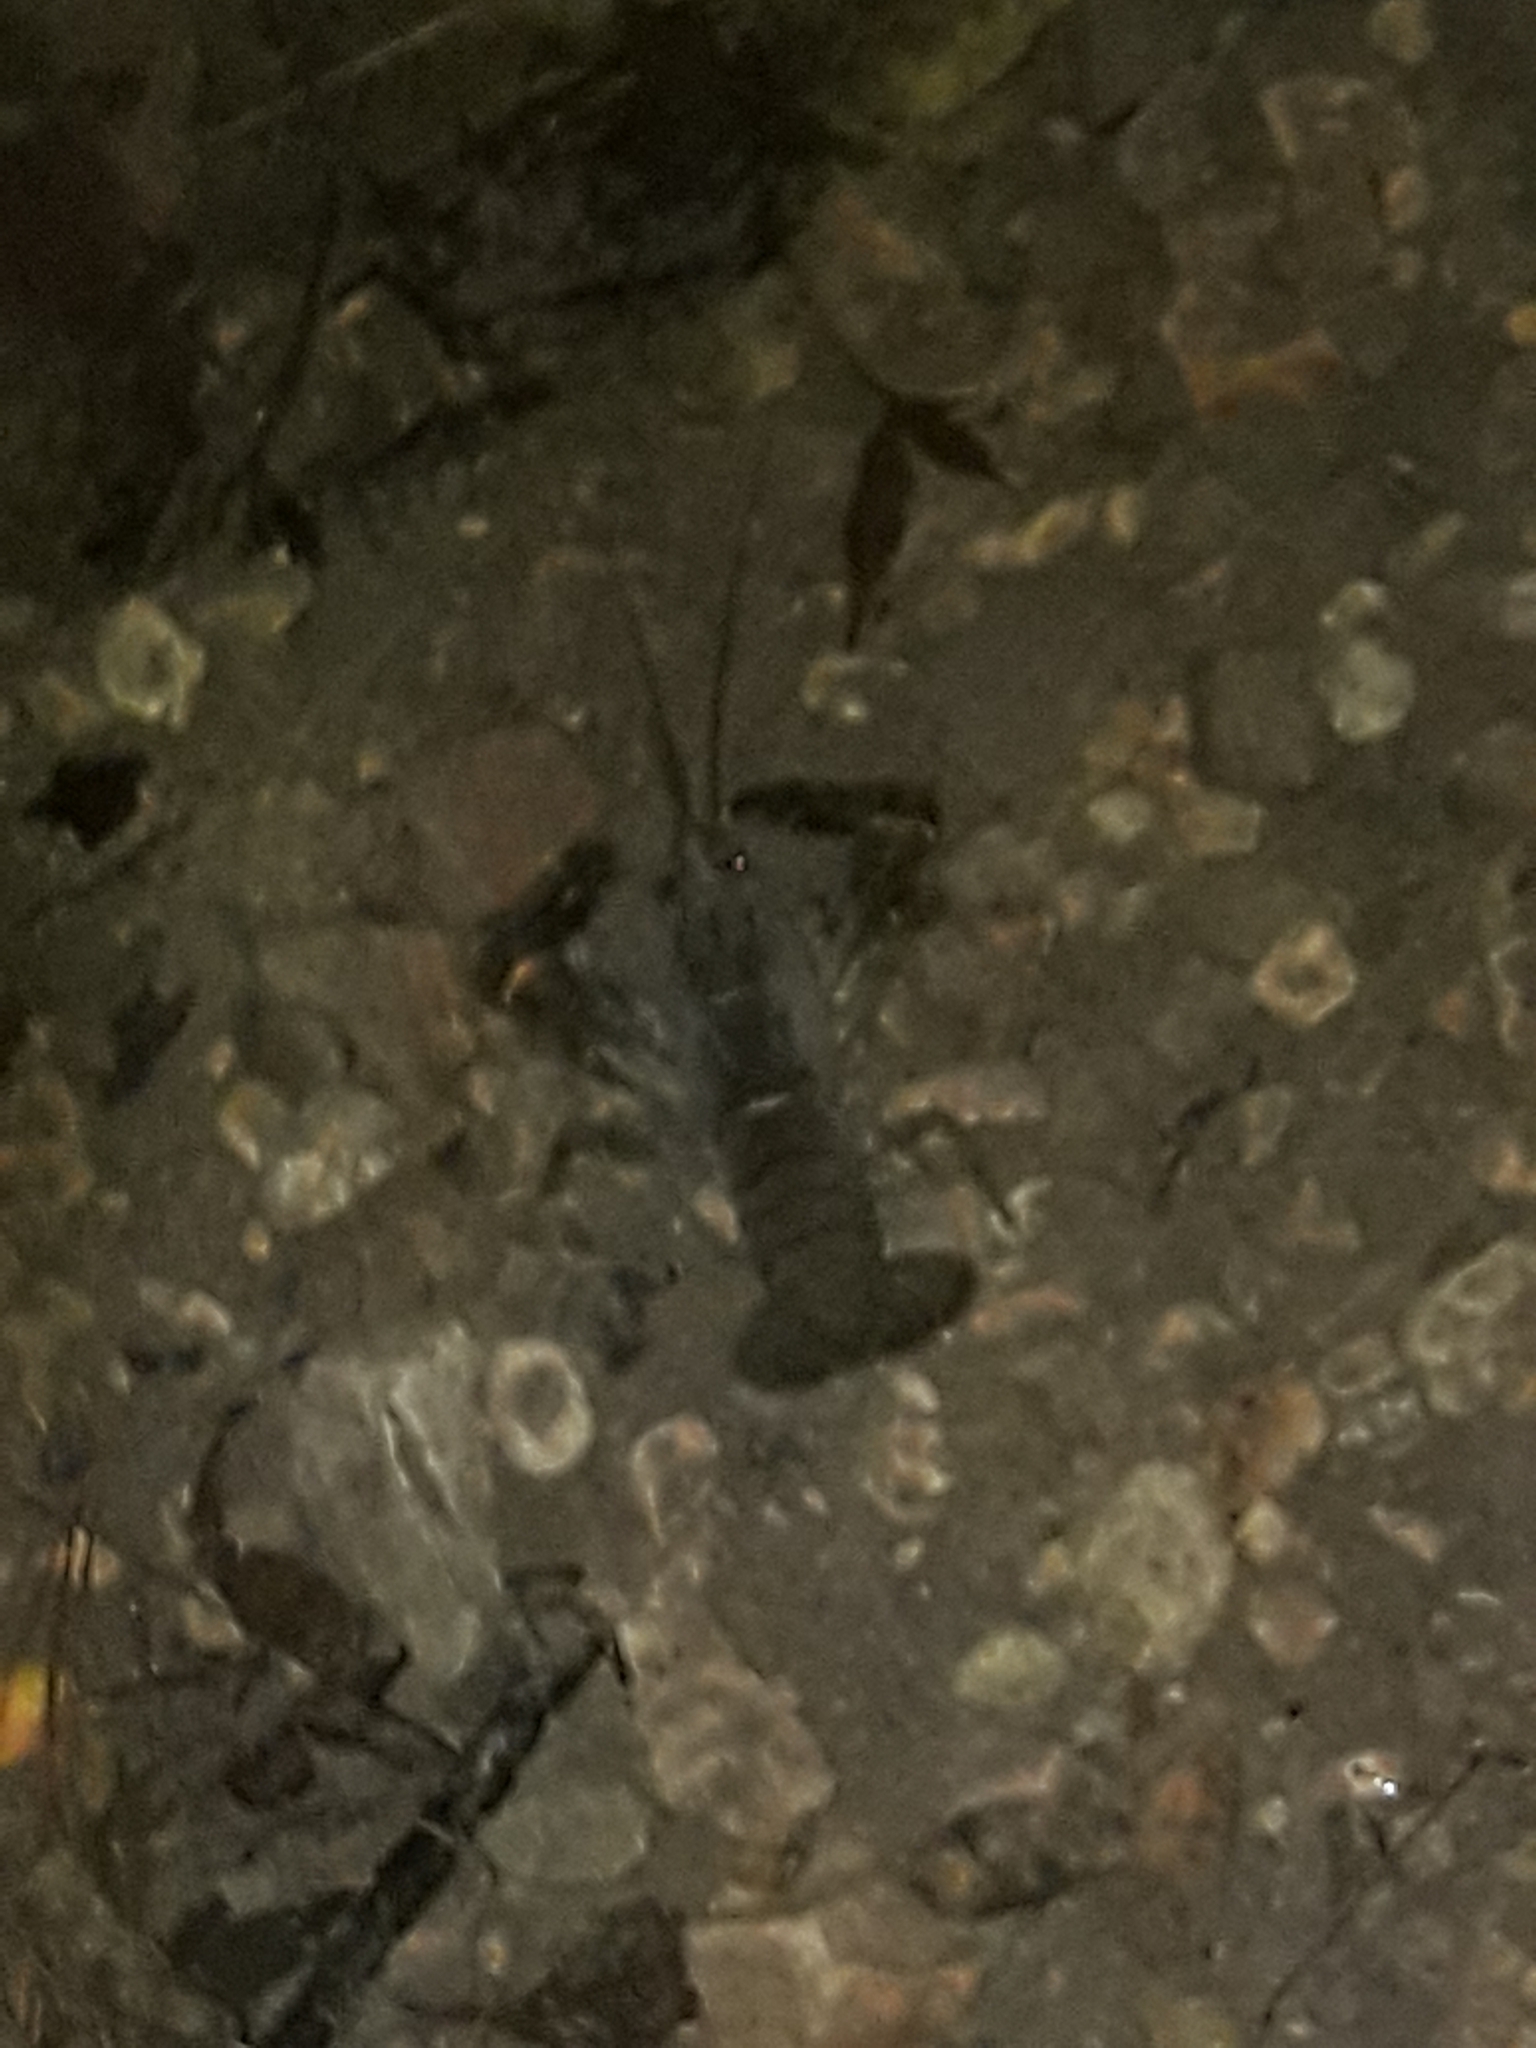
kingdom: Animalia
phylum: Arthropoda
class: Malacostraca
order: Decapoda
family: Parastacidae
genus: Paranephrops
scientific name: Paranephrops planifrons
